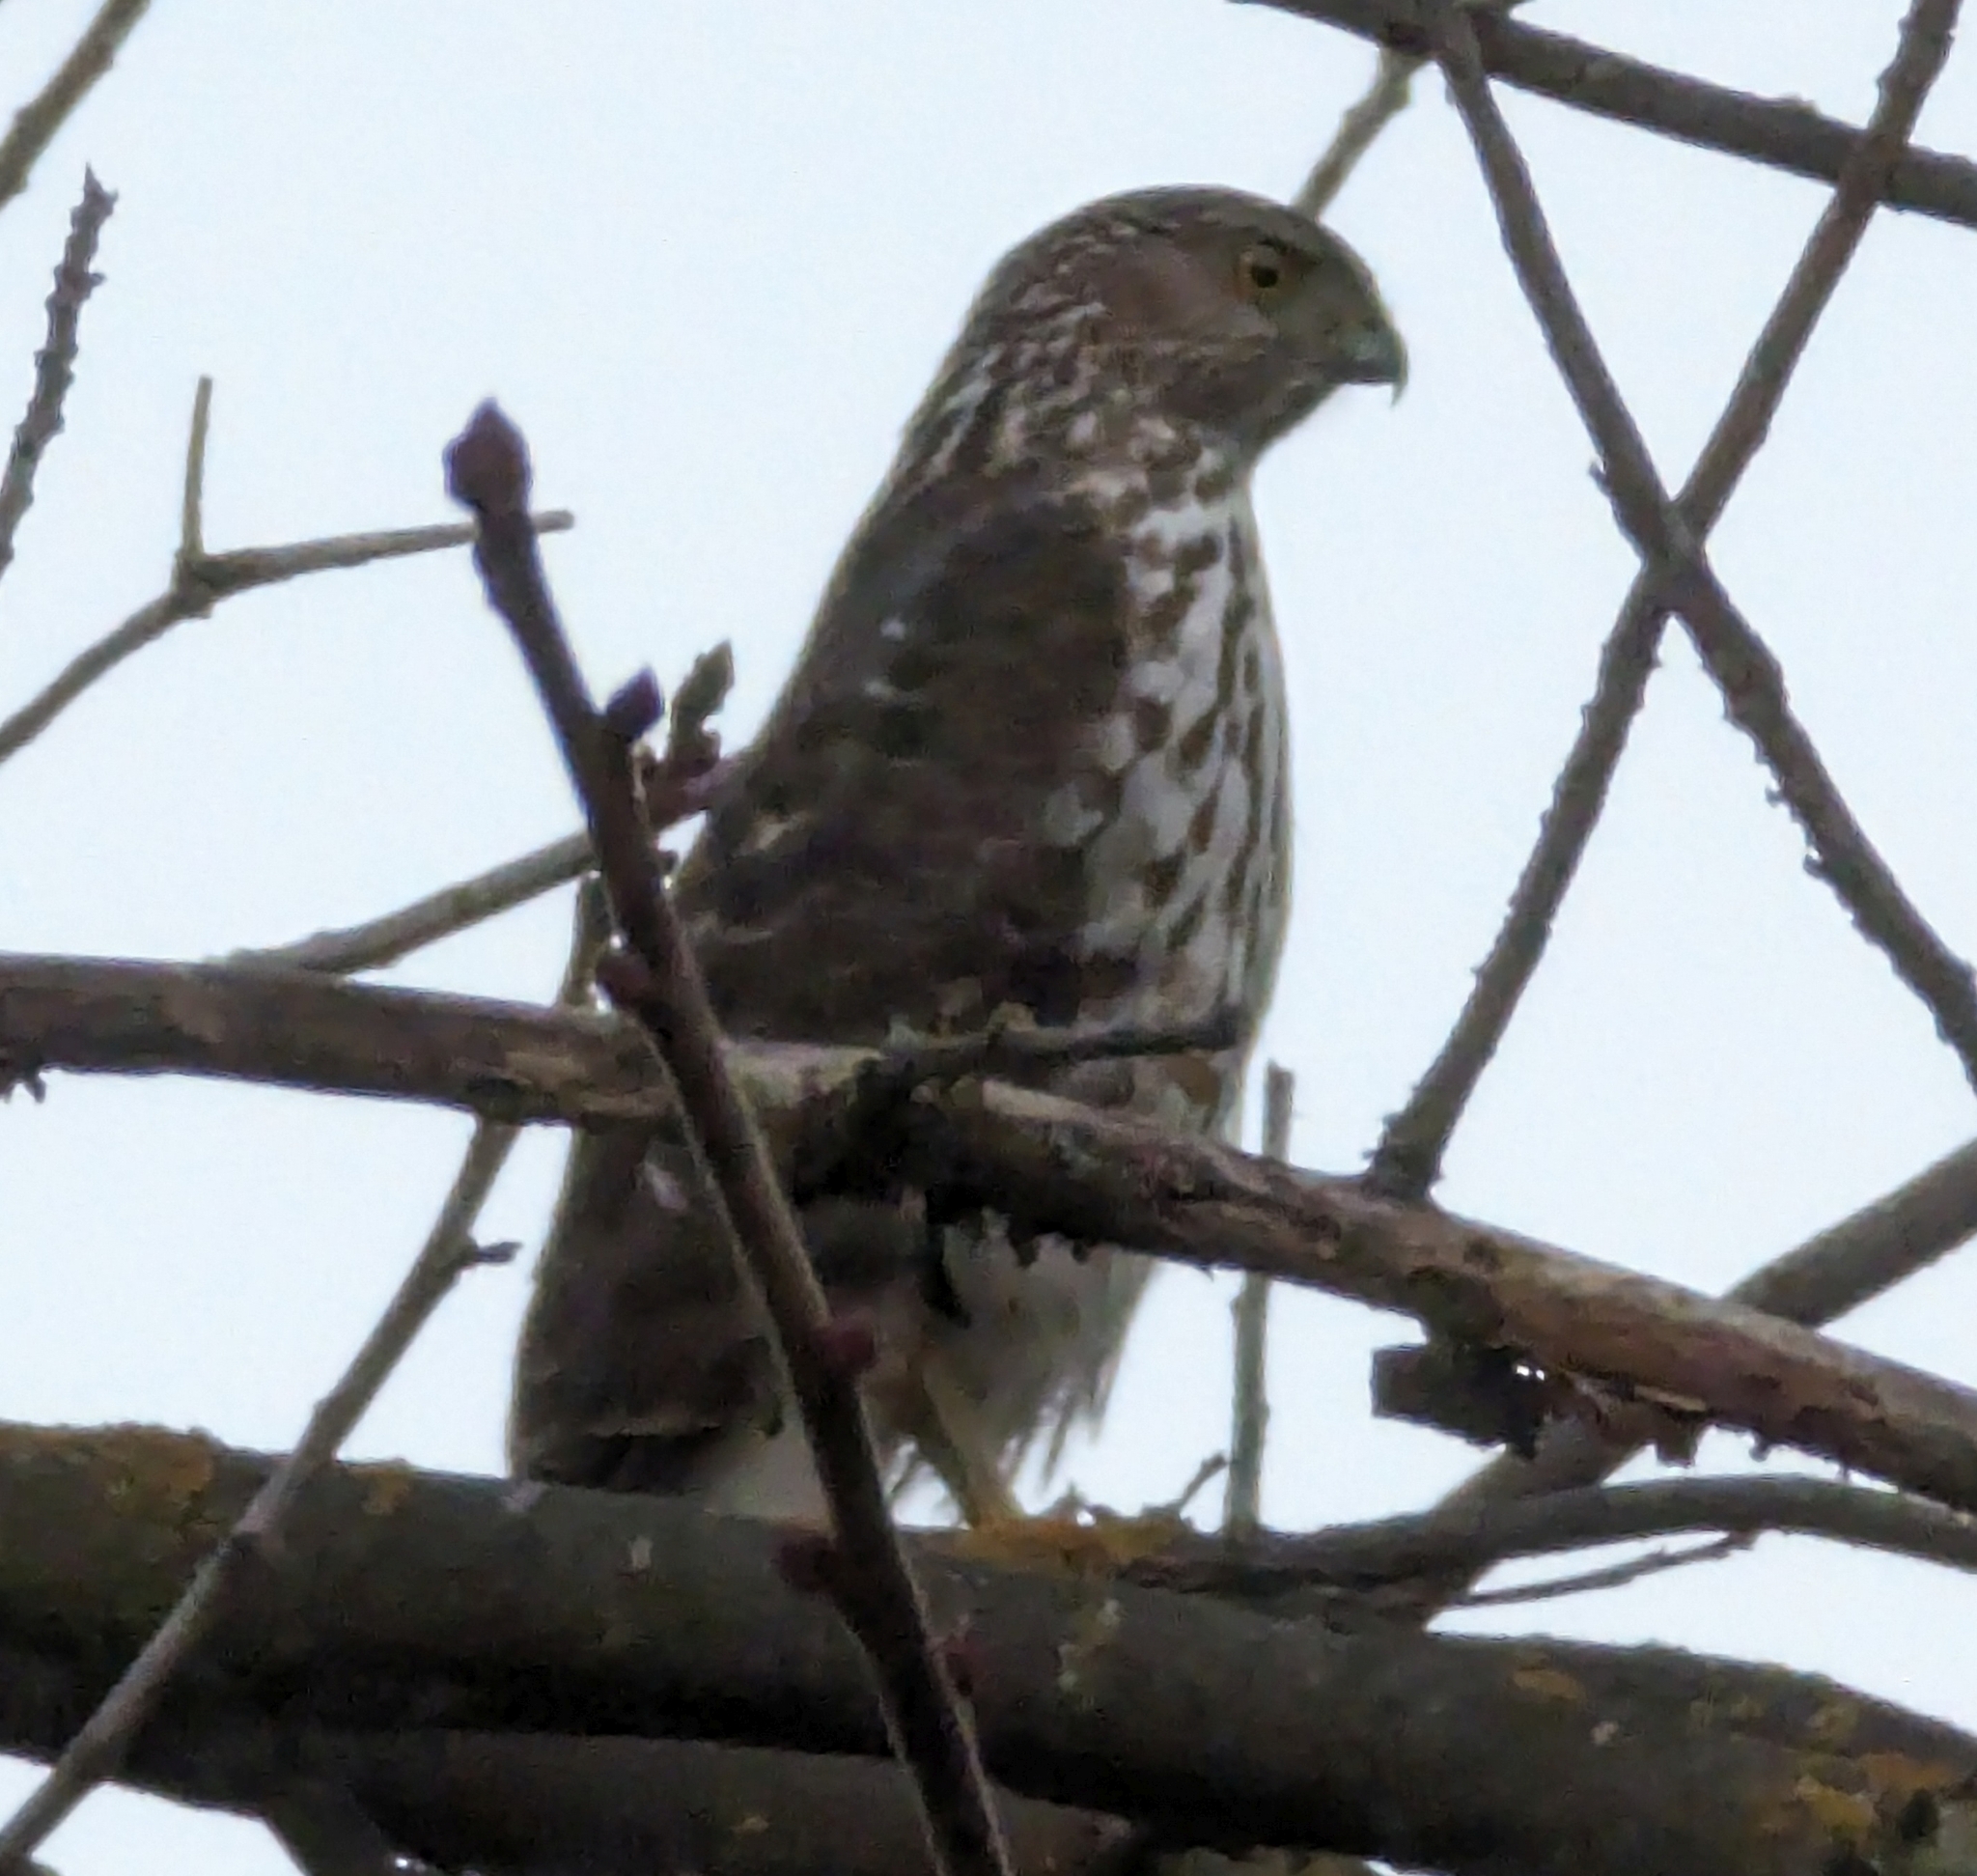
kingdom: Animalia
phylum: Chordata
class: Aves
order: Accipitriformes
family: Accipitridae
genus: Accipiter
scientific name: Accipiter cooperii
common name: Cooper's hawk
